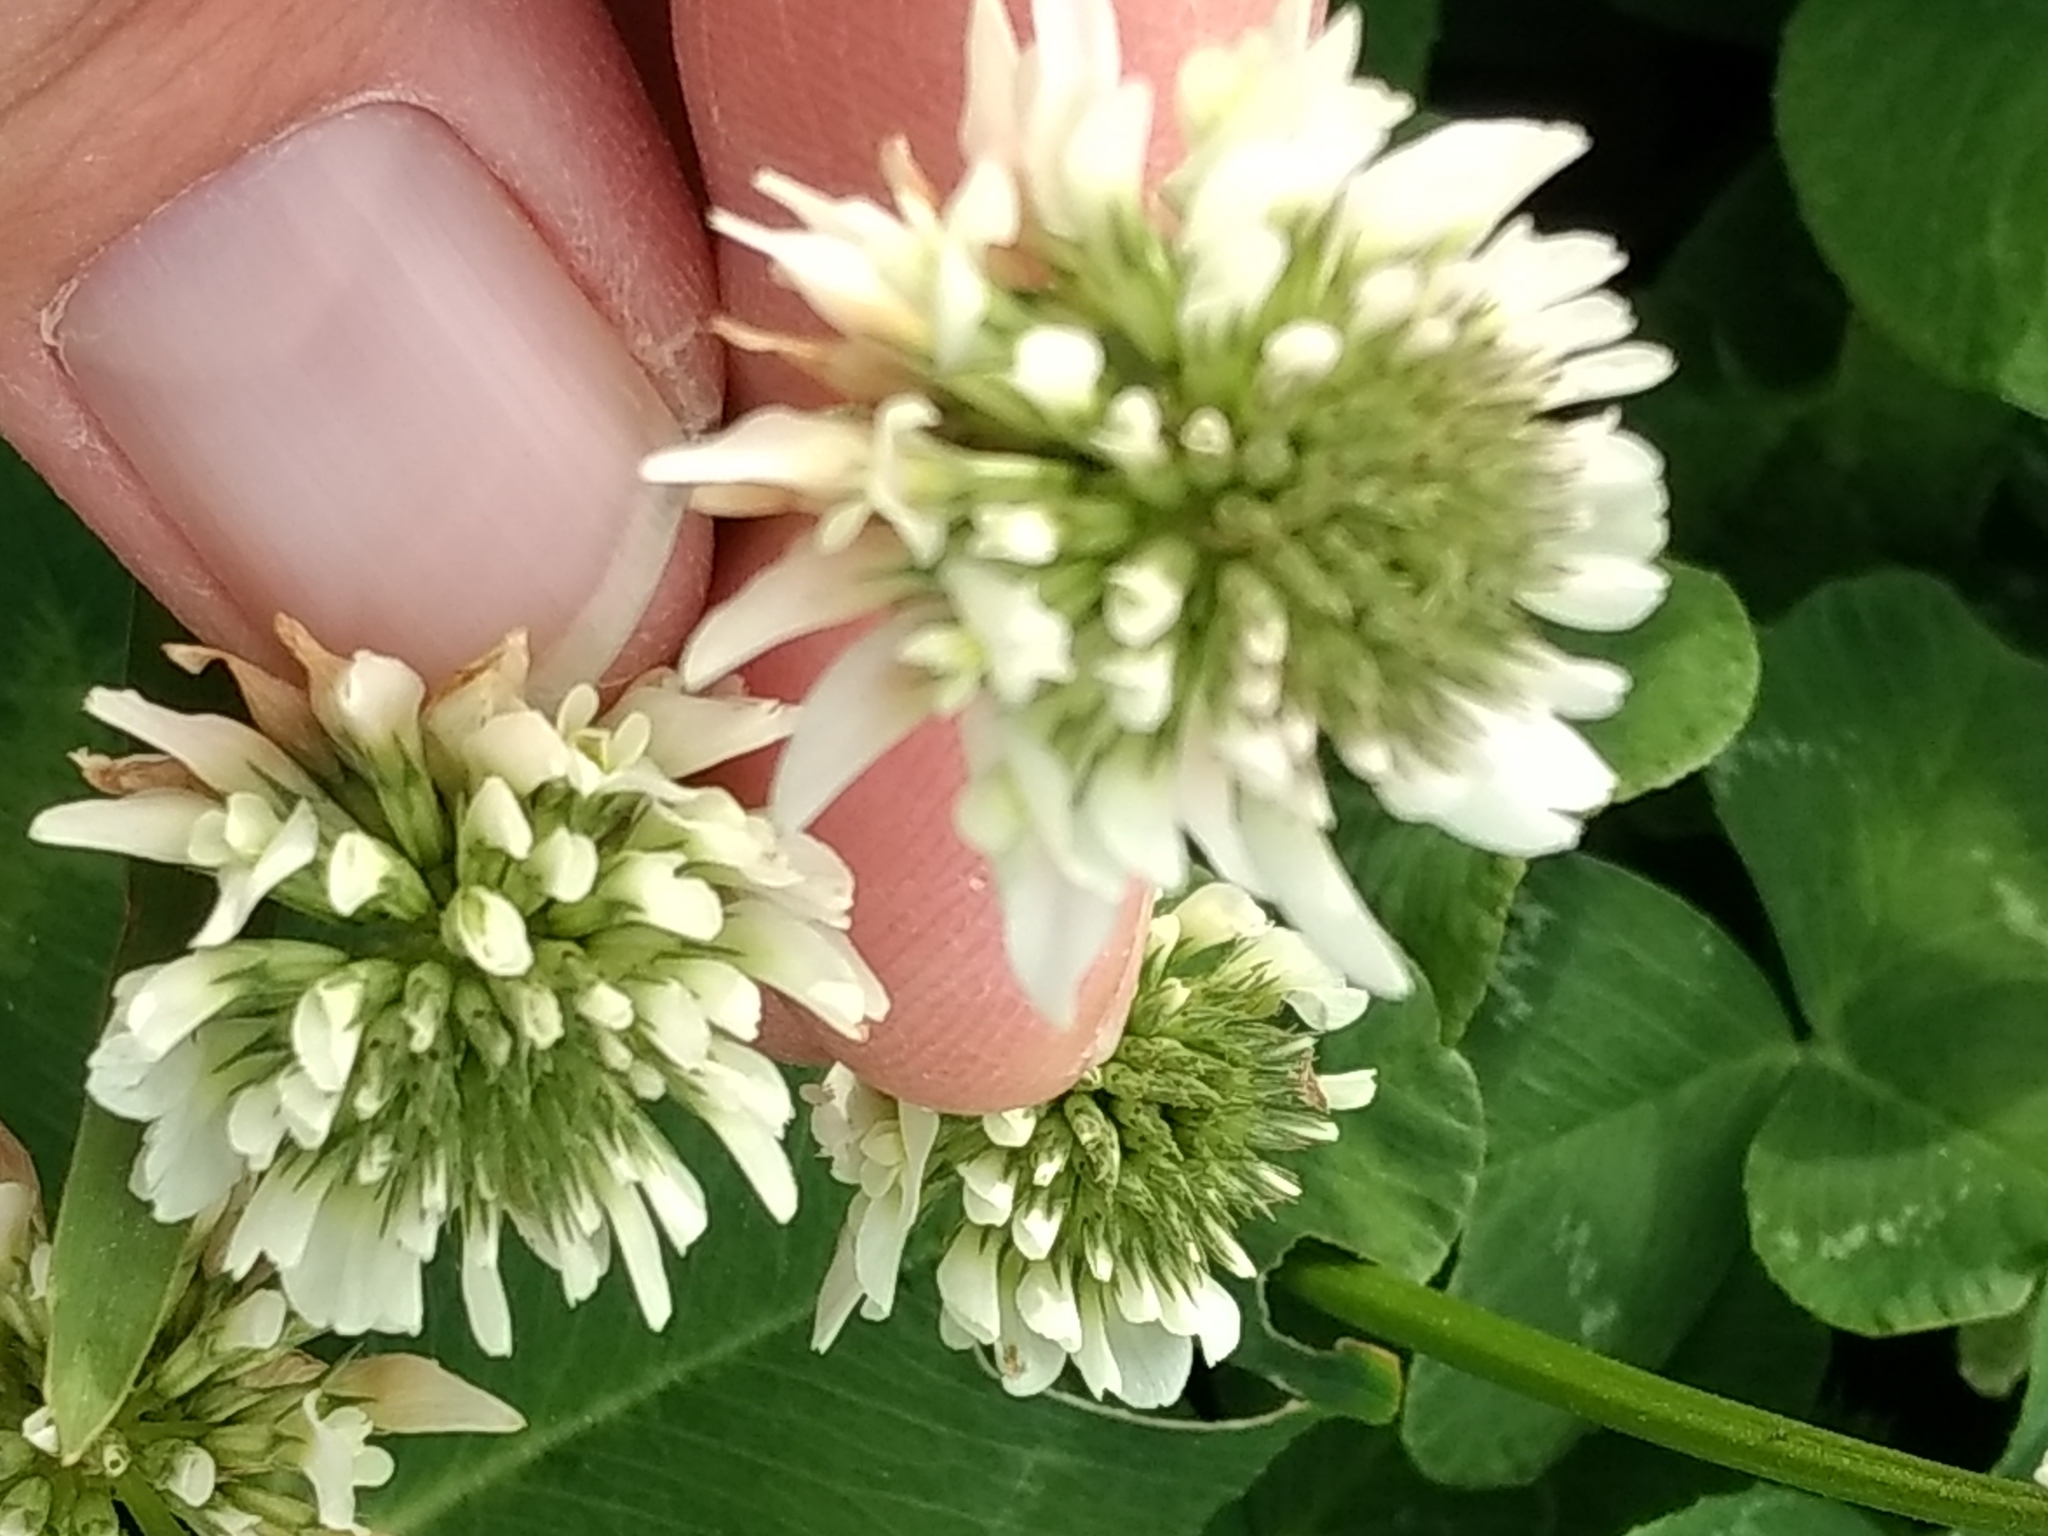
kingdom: Plantae
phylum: Tracheophyta
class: Magnoliopsida
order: Fabales
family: Fabaceae
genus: Trifolium
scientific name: Trifolium repens
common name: White clover
